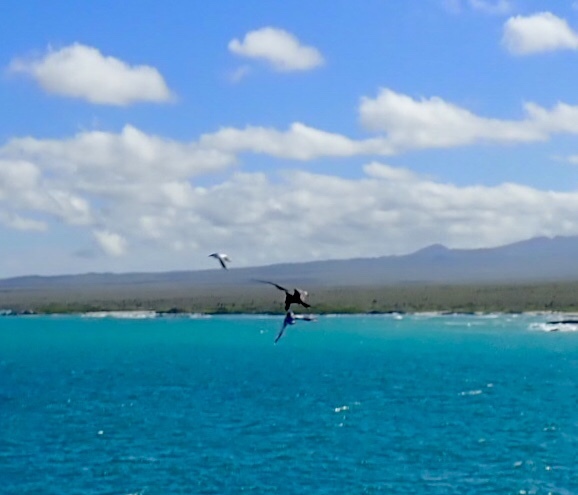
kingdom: Animalia
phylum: Chordata
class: Aves
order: Suliformes
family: Fregatidae
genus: Fregata
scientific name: Fregata
